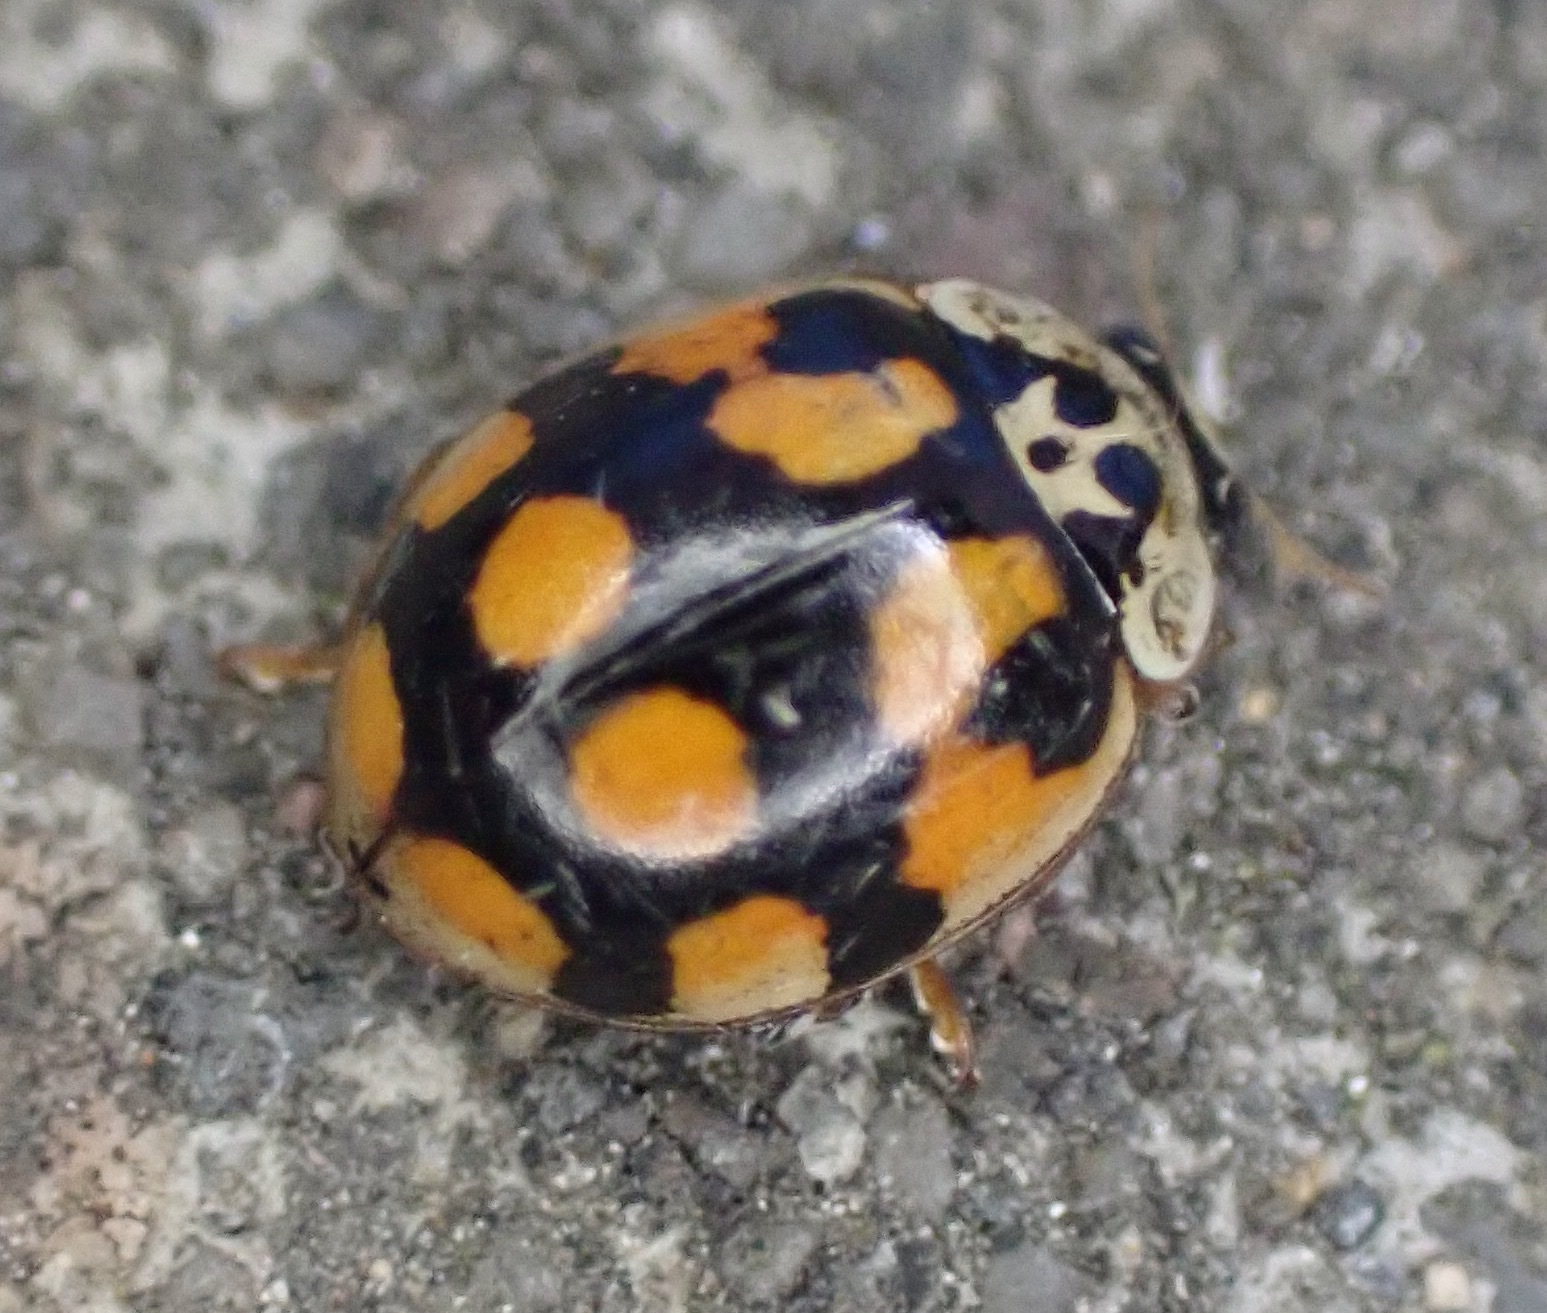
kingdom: Animalia
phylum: Arthropoda
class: Insecta
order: Coleoptera
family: Coccinellidae
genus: Adalia
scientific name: Adalia decempunctata
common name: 10-spot ladybird
